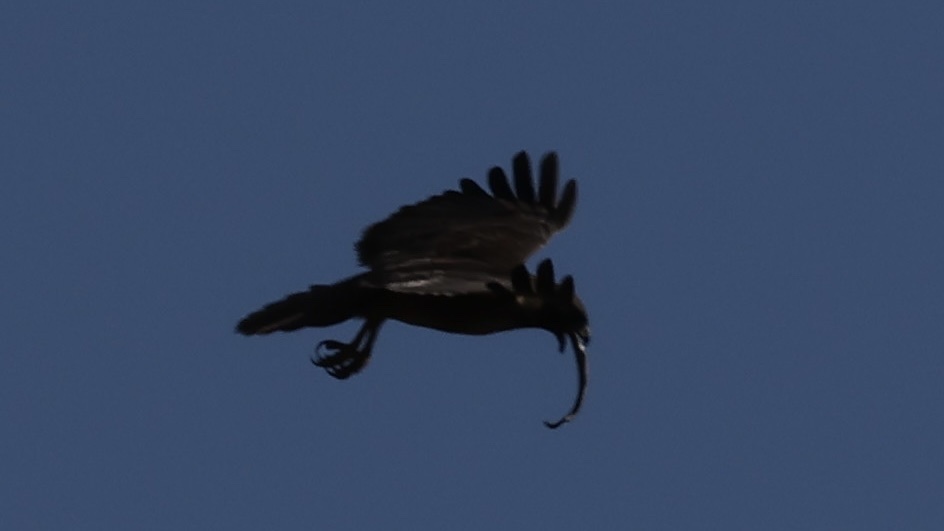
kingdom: Animalia
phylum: Chordata
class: Aves
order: Accipitriformes
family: Accipitridae
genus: Buteo
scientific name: Buteo jamaicensis
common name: Red-tailed hawk
